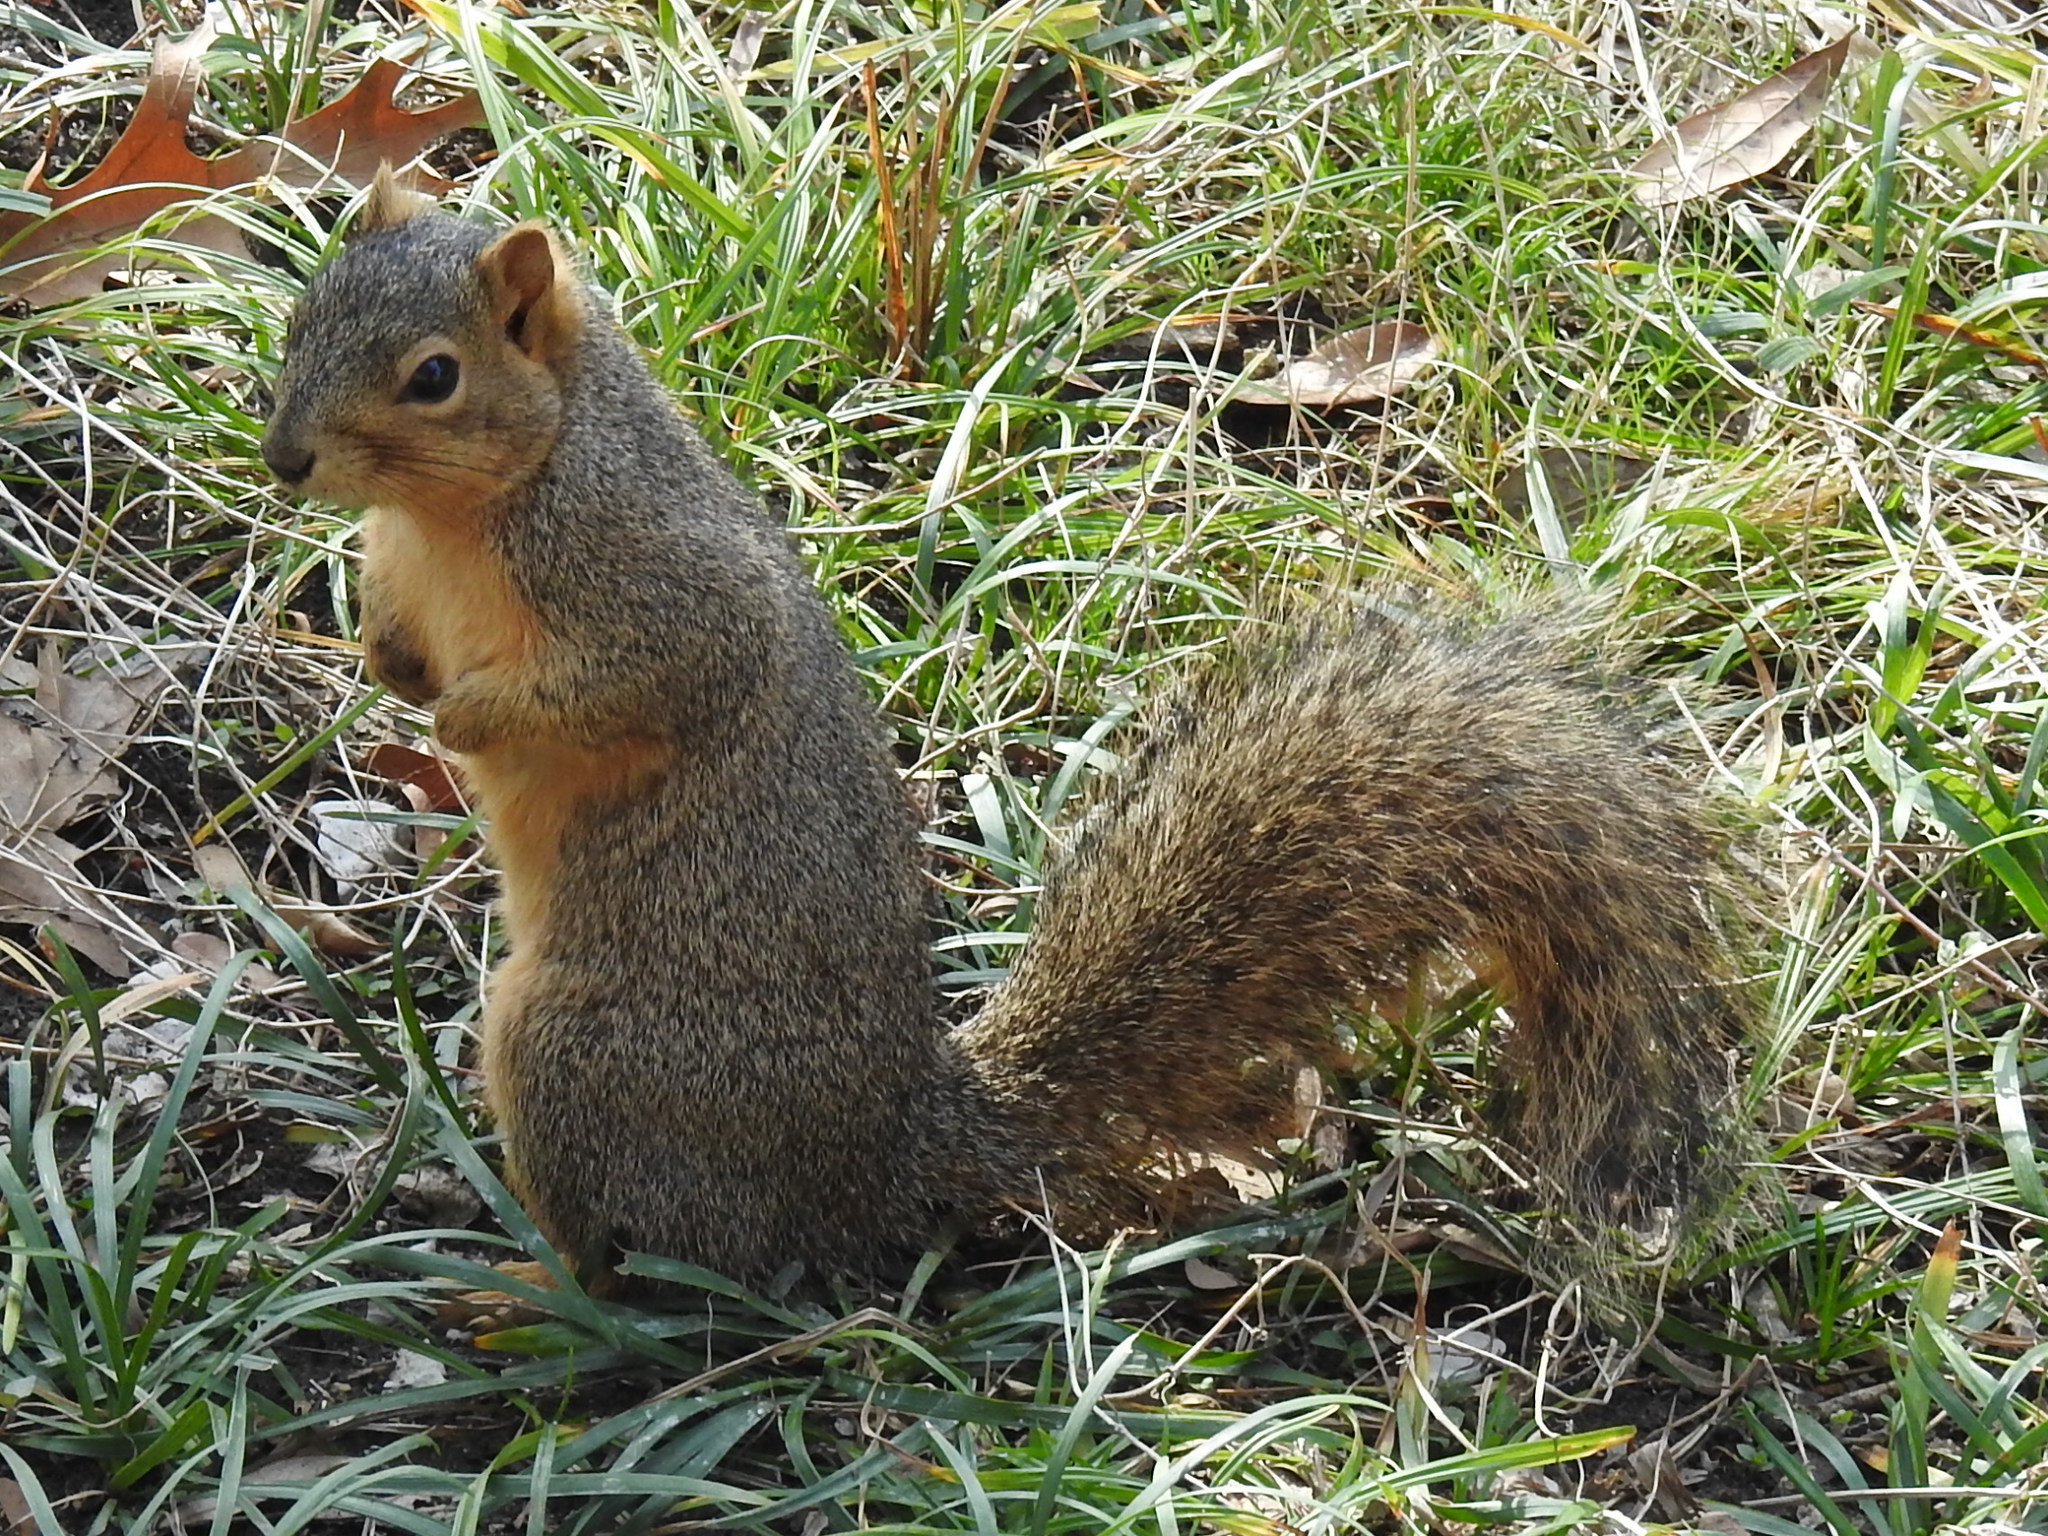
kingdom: Animalia
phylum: Chordata
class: Mammalia
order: Rodentia
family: Sciuridae
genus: Sciurus
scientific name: Sciurus niger
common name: Fox squirrel
